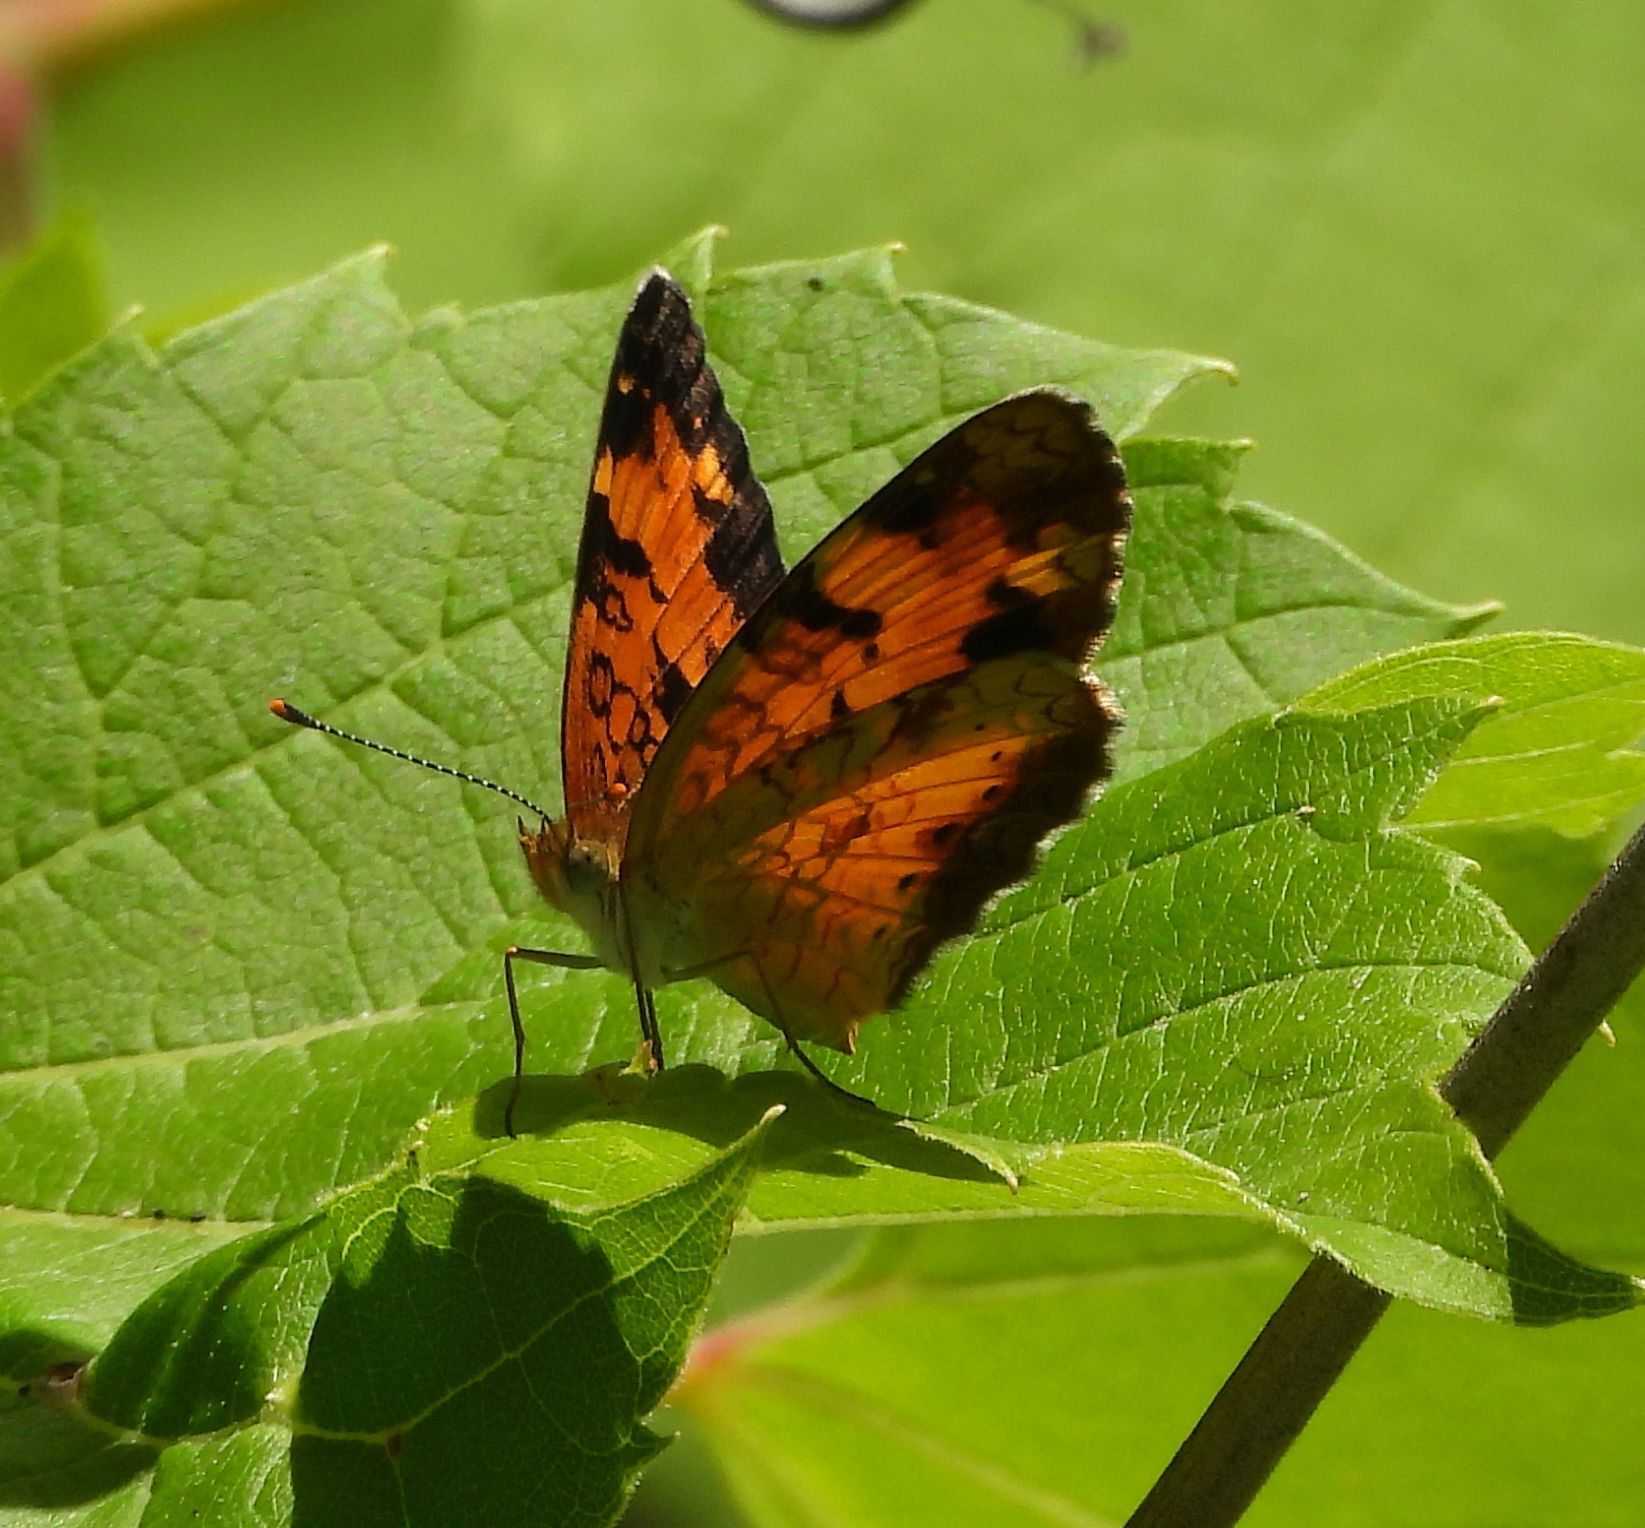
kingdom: Animalia
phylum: Arthropoda
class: Insecta
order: Lepidoptera
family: Nymphalidae
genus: Phyciodes
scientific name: Phyciodes tharos
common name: Pearl crescent
